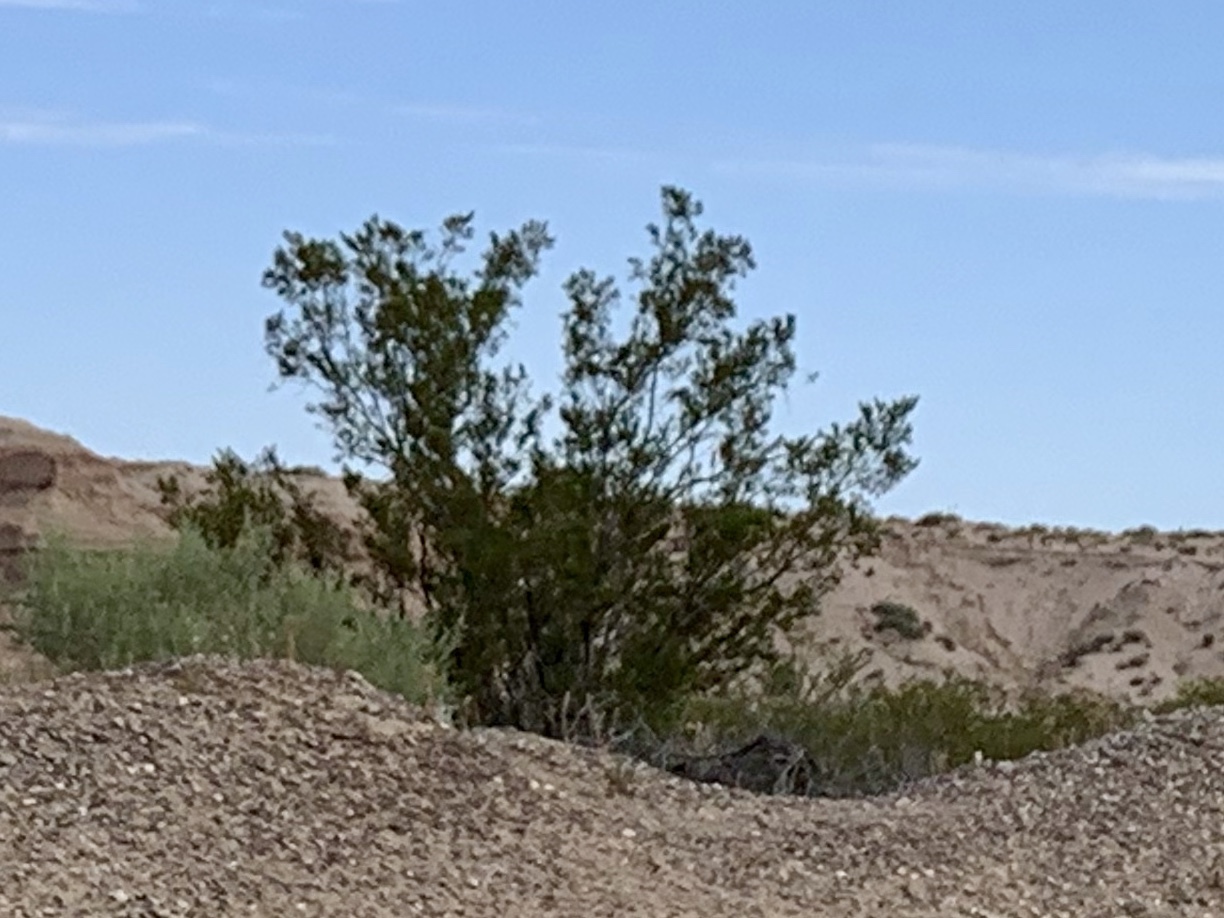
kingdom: Plantae
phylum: Tracheophyta
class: Magnoliopsida
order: Zygophyllales
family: Zygophyllaceae
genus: Larrea
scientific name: Larrea tridentata
